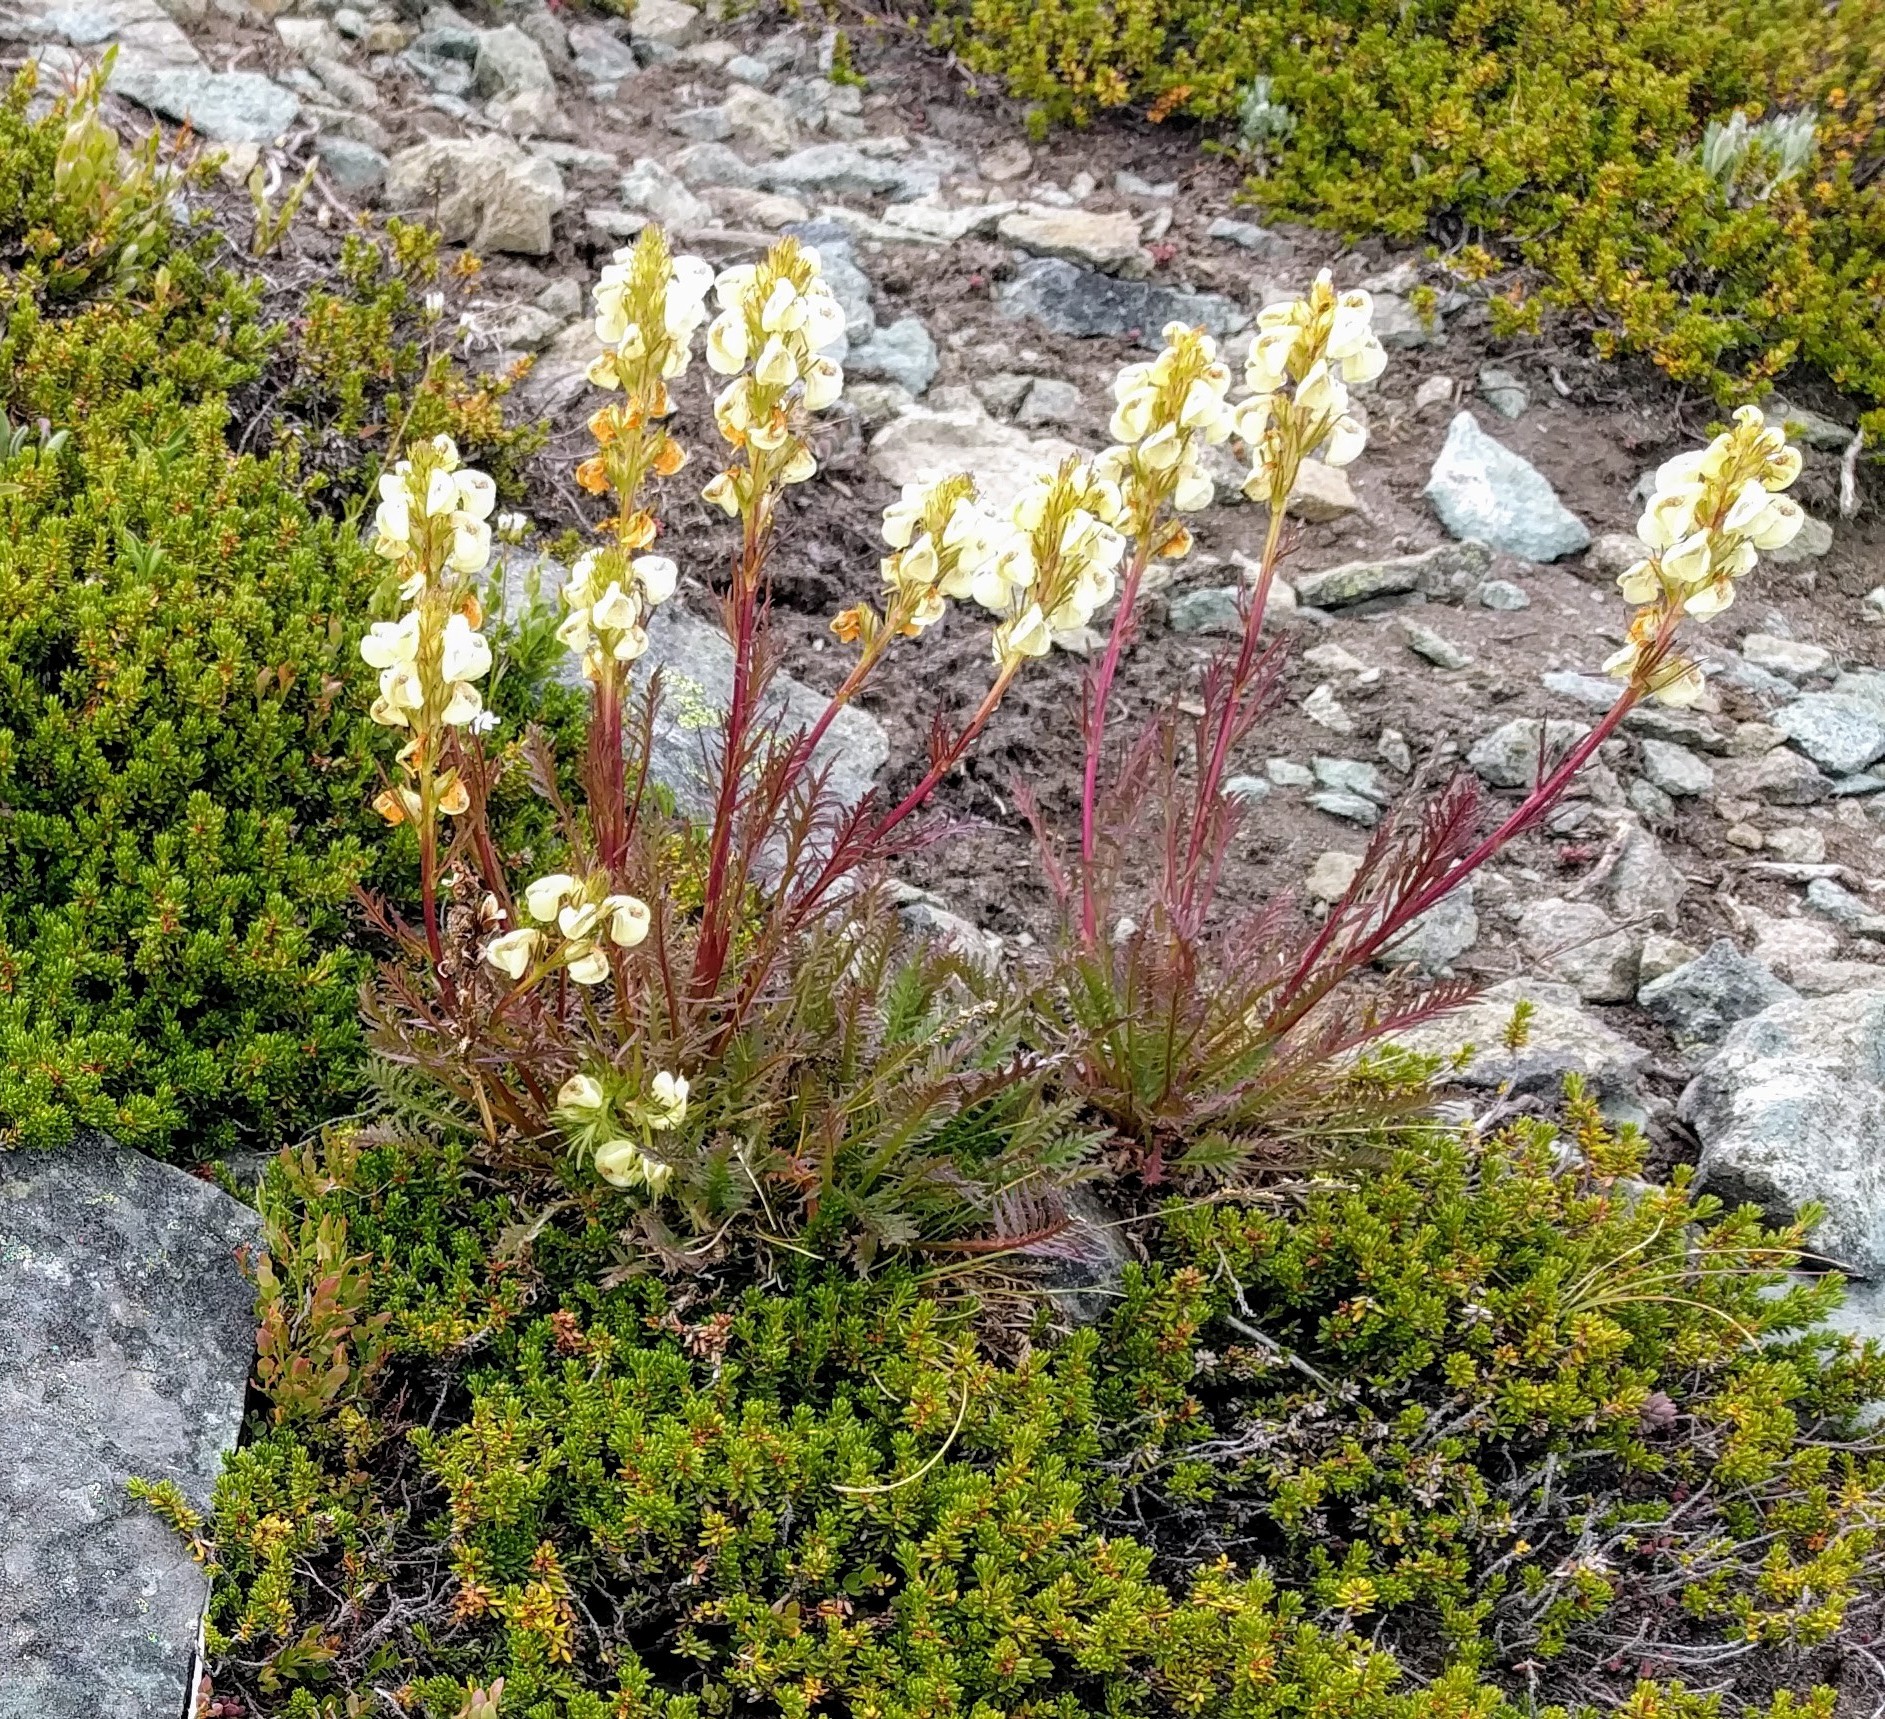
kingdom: Plantae
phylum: Tracheophyta
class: Magnoliopsida
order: Lamiales
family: Orobanchaceae
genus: Pedicularis
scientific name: Pedicularis contorta
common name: Coiled lousewort
